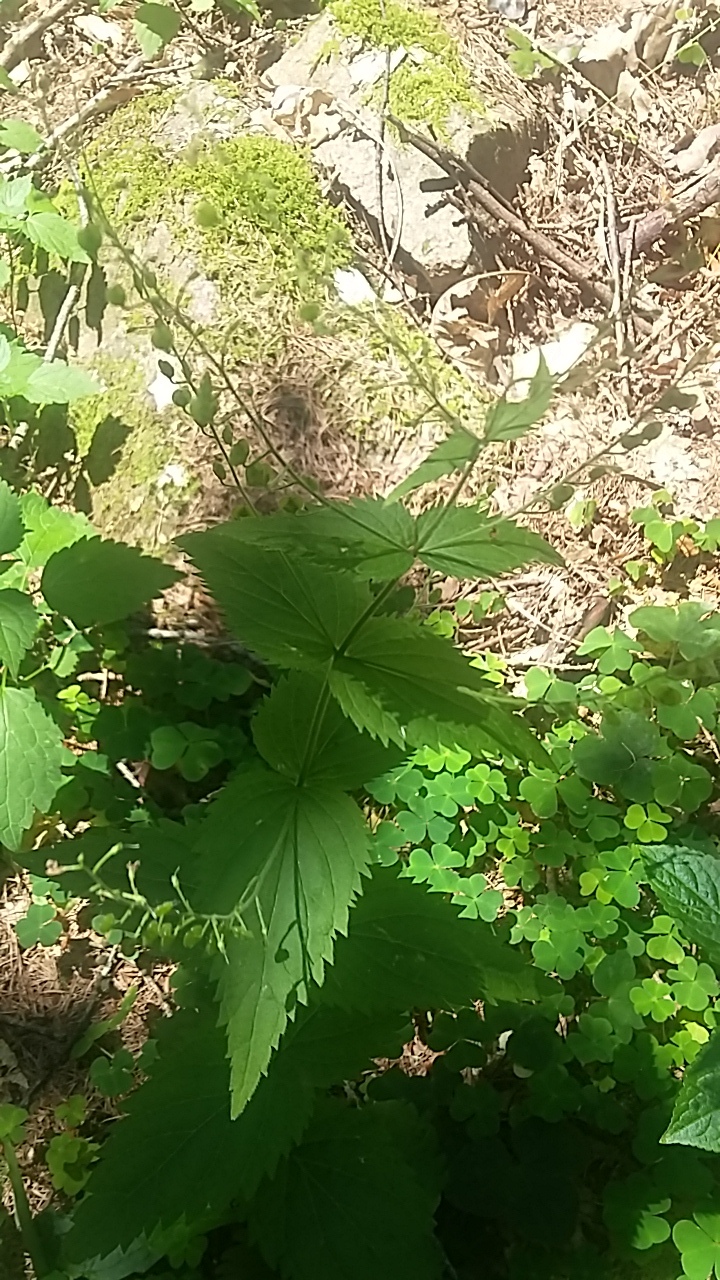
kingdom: Plantae
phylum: Tracheophyta
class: Magnoliopsida
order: Lamiales
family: Plantaginaceae
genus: Veronica
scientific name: Veronica urticifolia
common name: Nettle-leaf speedwell
